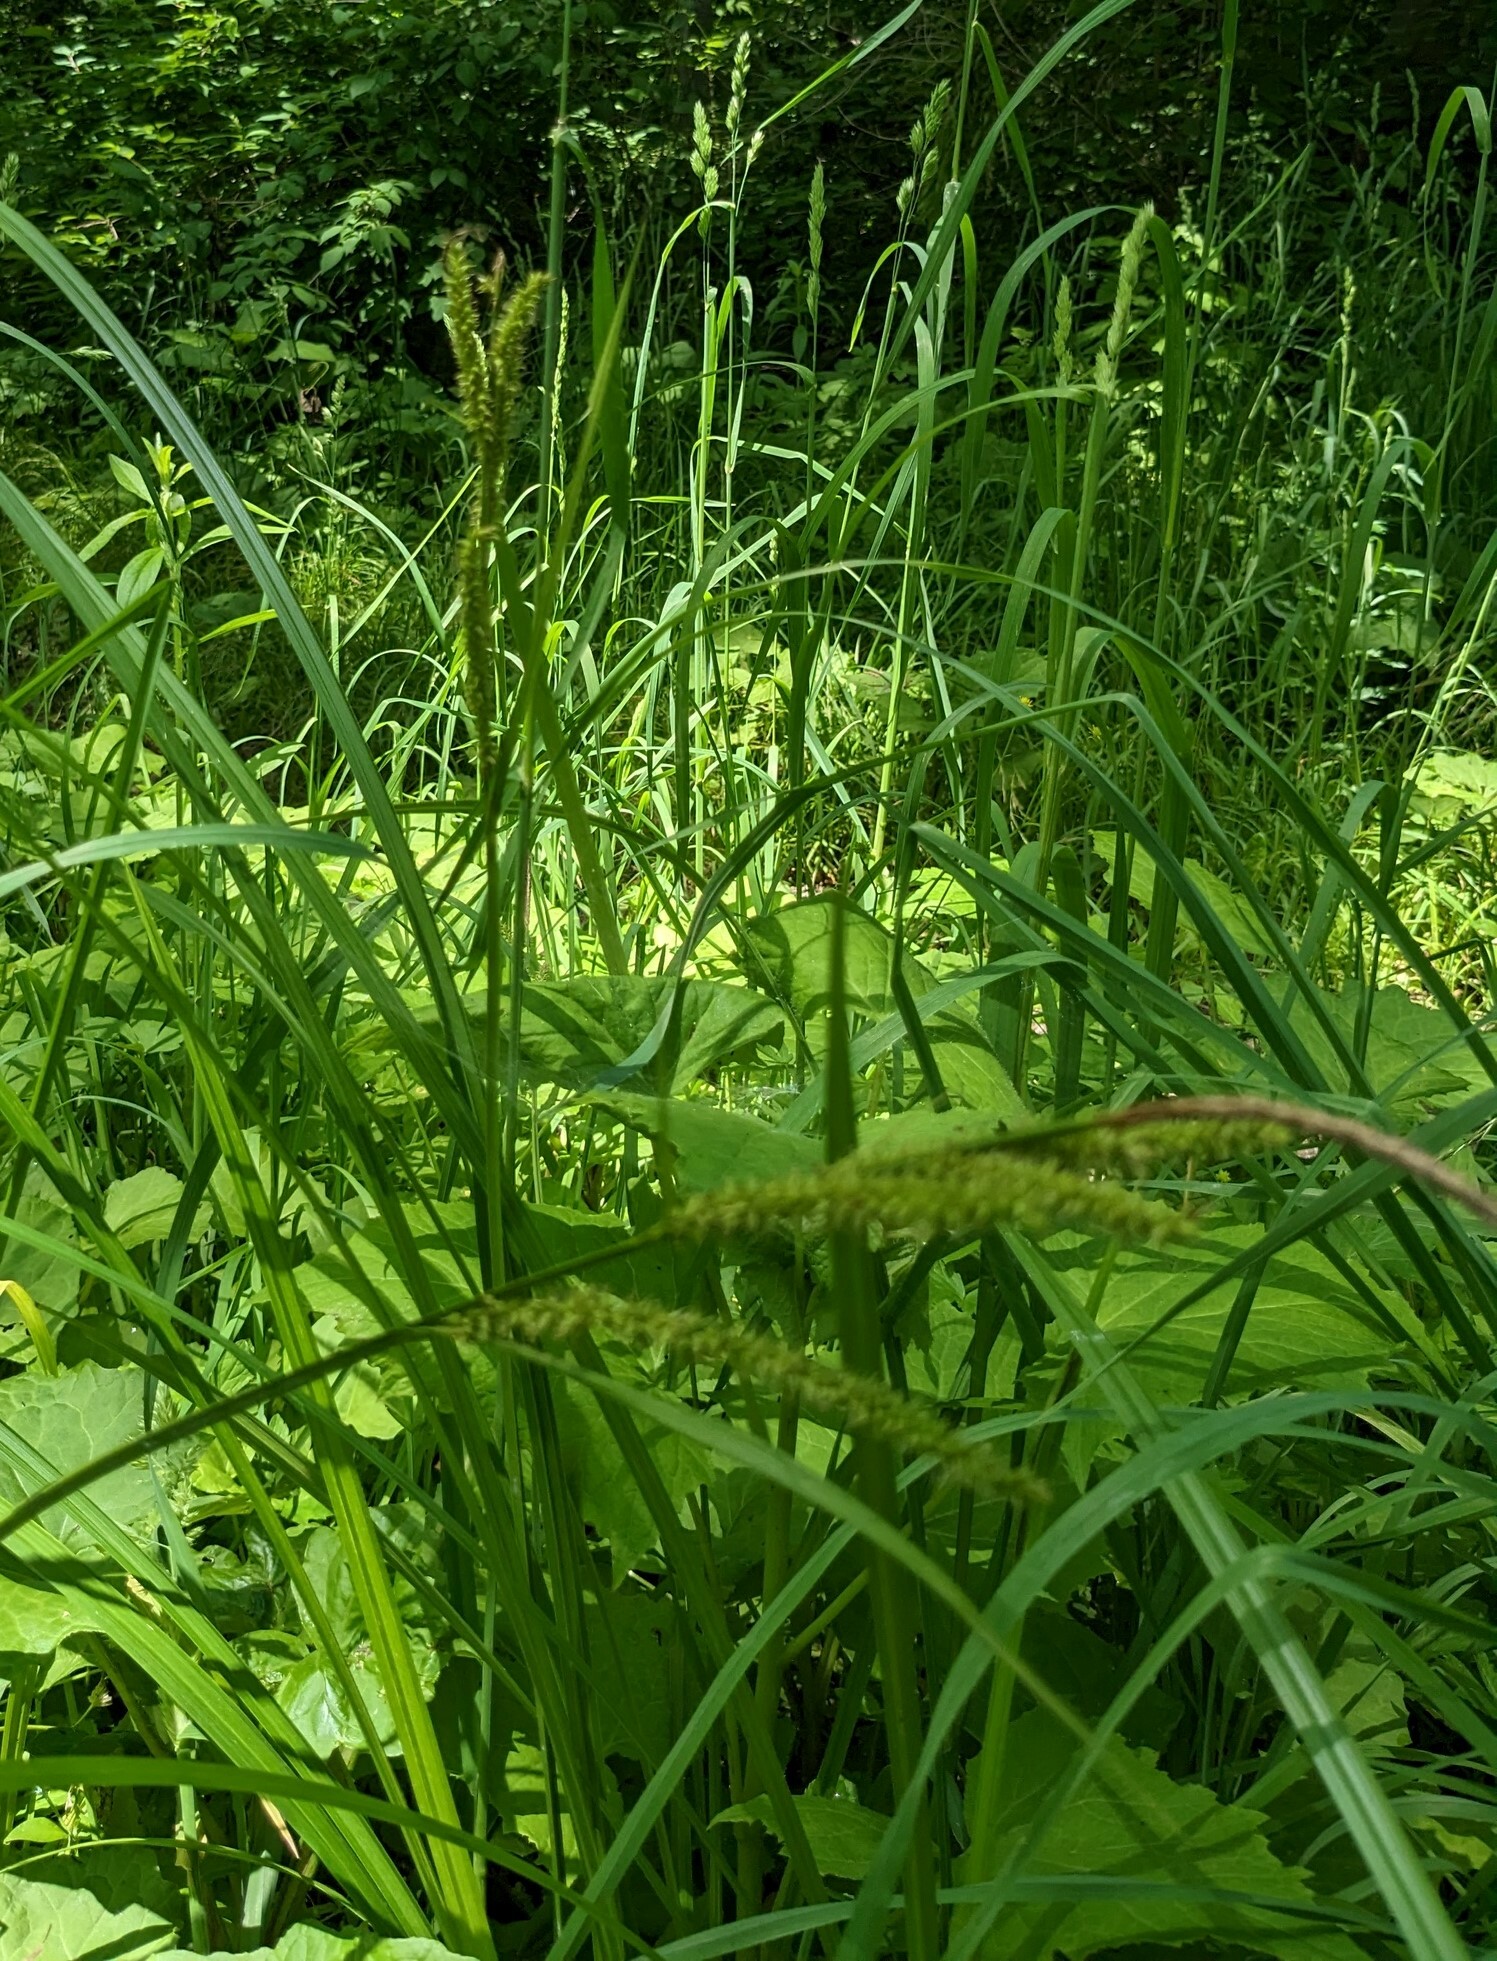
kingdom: Plantae
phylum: Tracheophyta
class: Liliopsida
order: Poales
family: Cyperaceae
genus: Carex
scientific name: Carex dispalata
